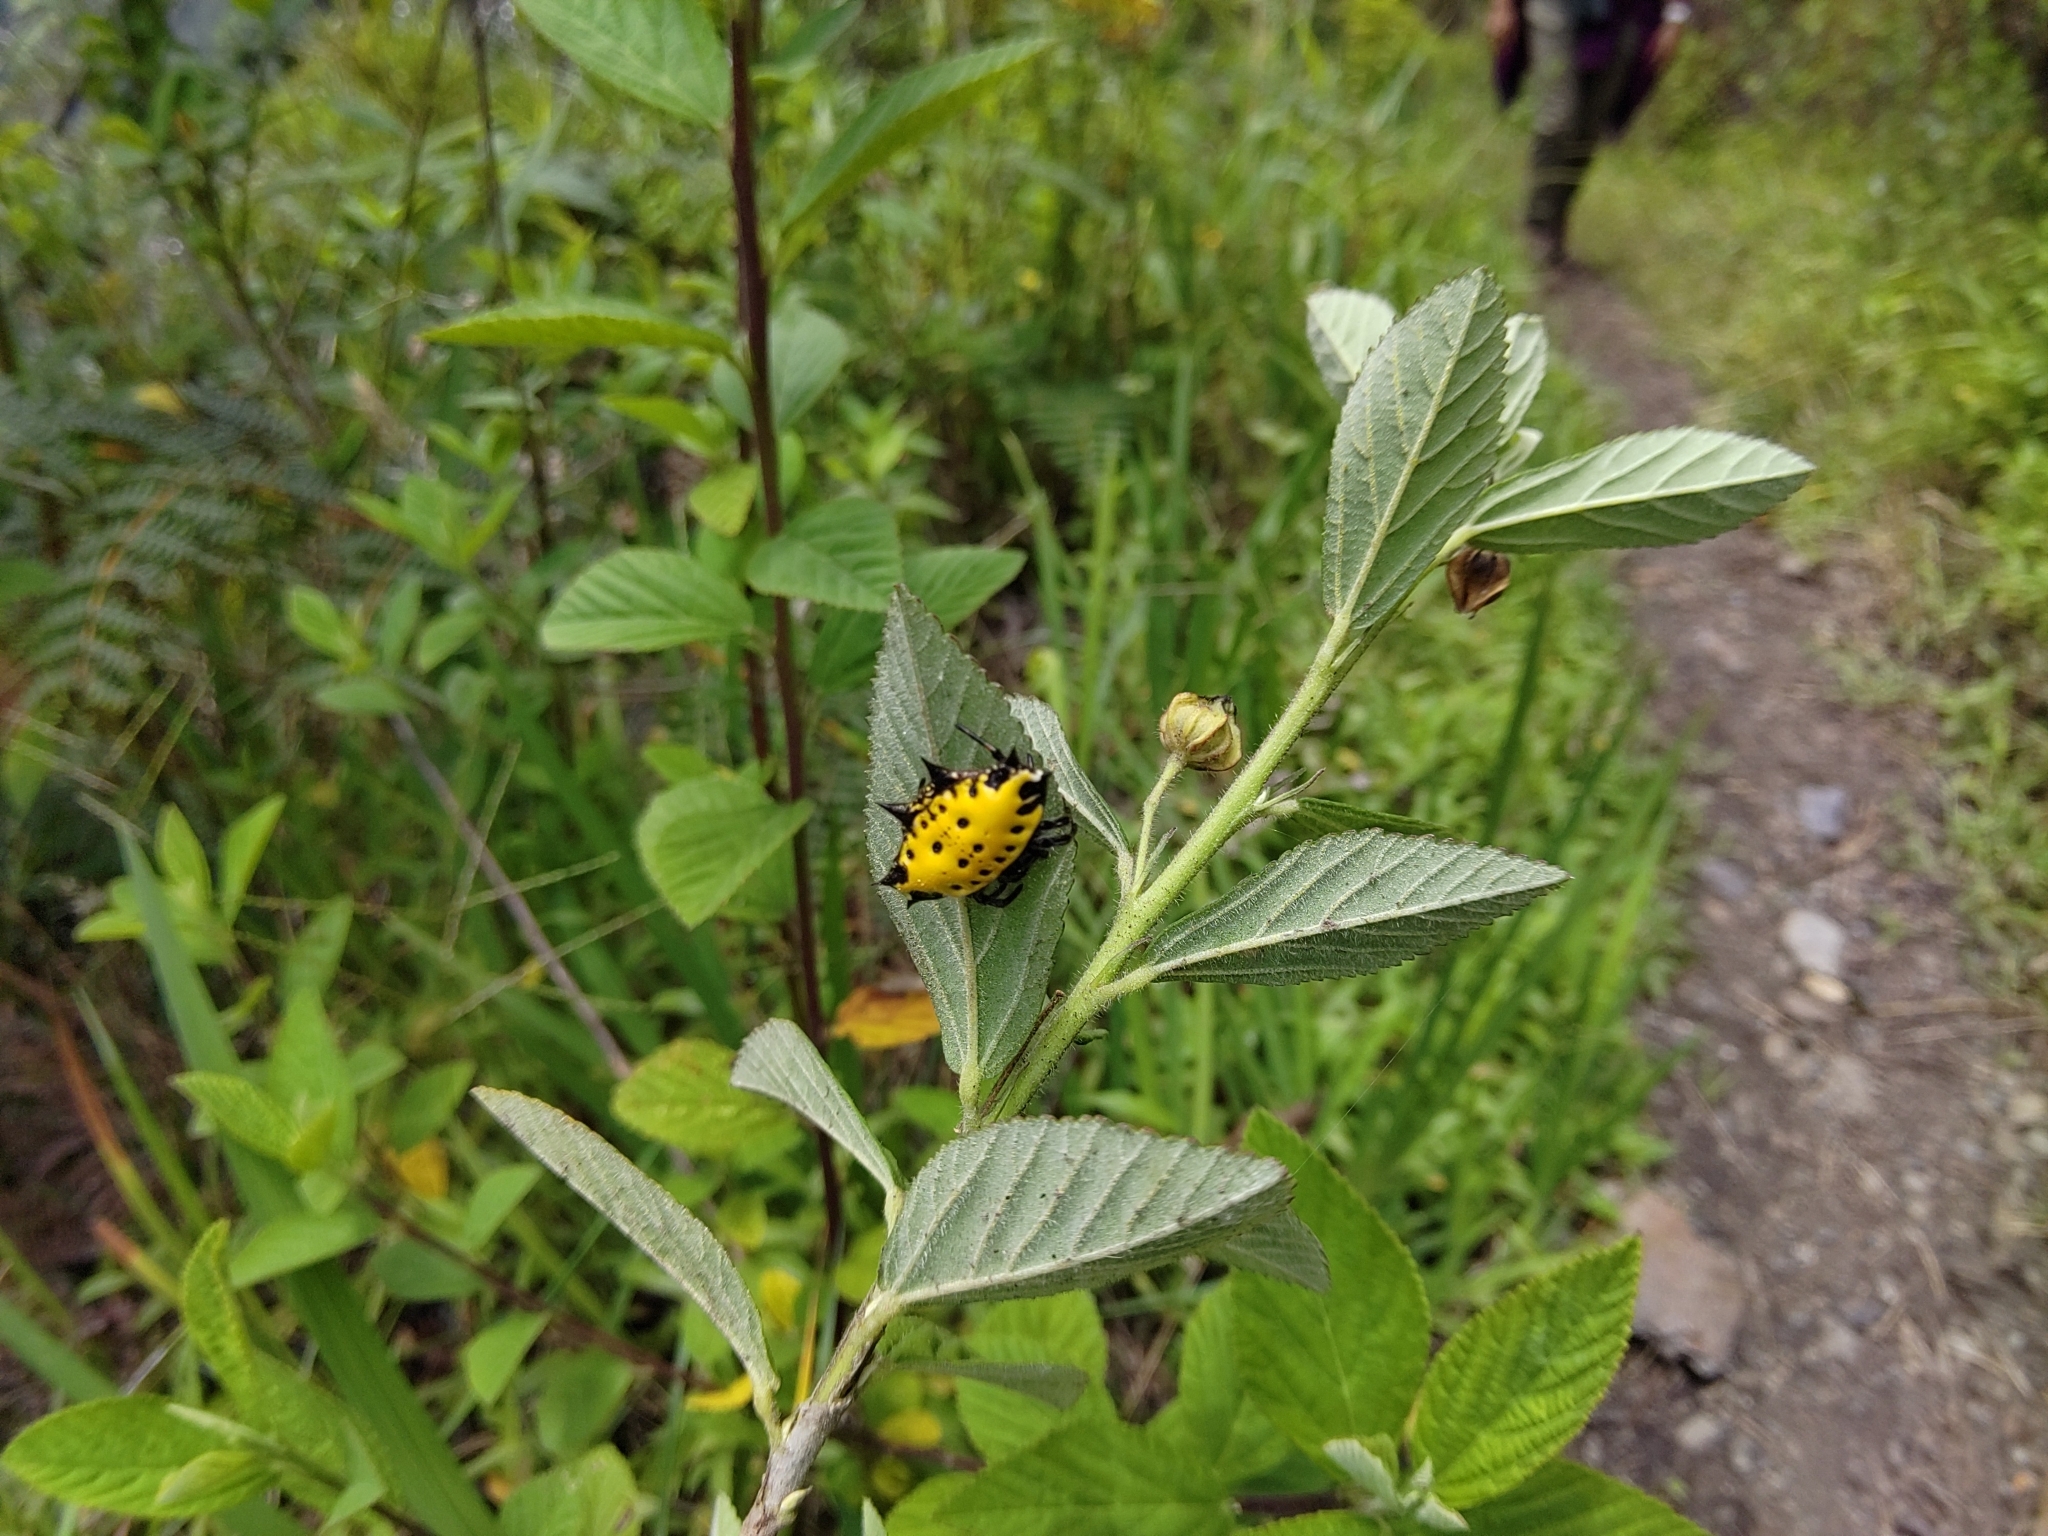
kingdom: Animalia
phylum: Arthropoda
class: Arachnida
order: Araneae
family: Araneidae
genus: Gasteracantha
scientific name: Gasteracantha cancriformis
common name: Orb weavers
